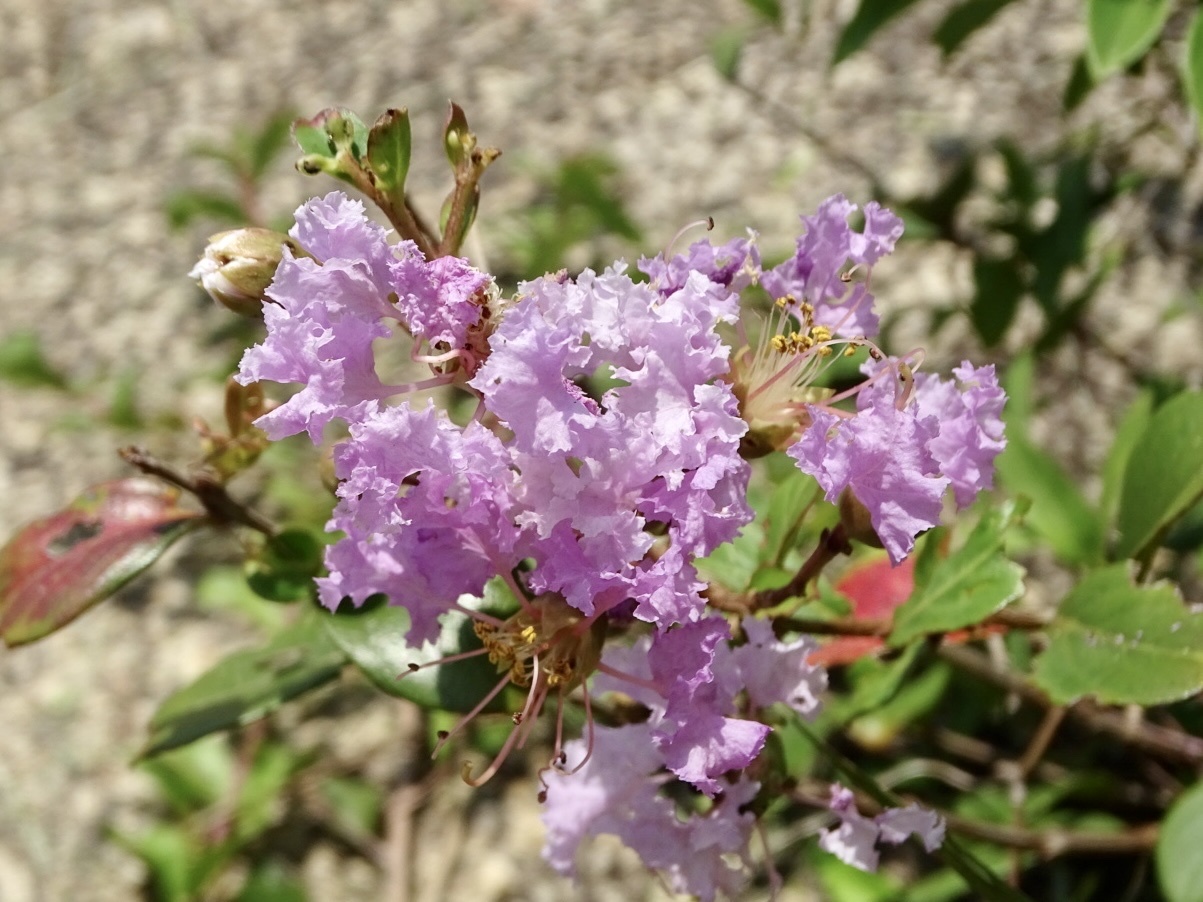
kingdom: Plantae
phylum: Tracheophyta
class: Magnoliopsida
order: Myrtales
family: Lythraceae
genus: Lagerstroemia
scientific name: Lagerstroemia indica
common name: Crape-myrtle
